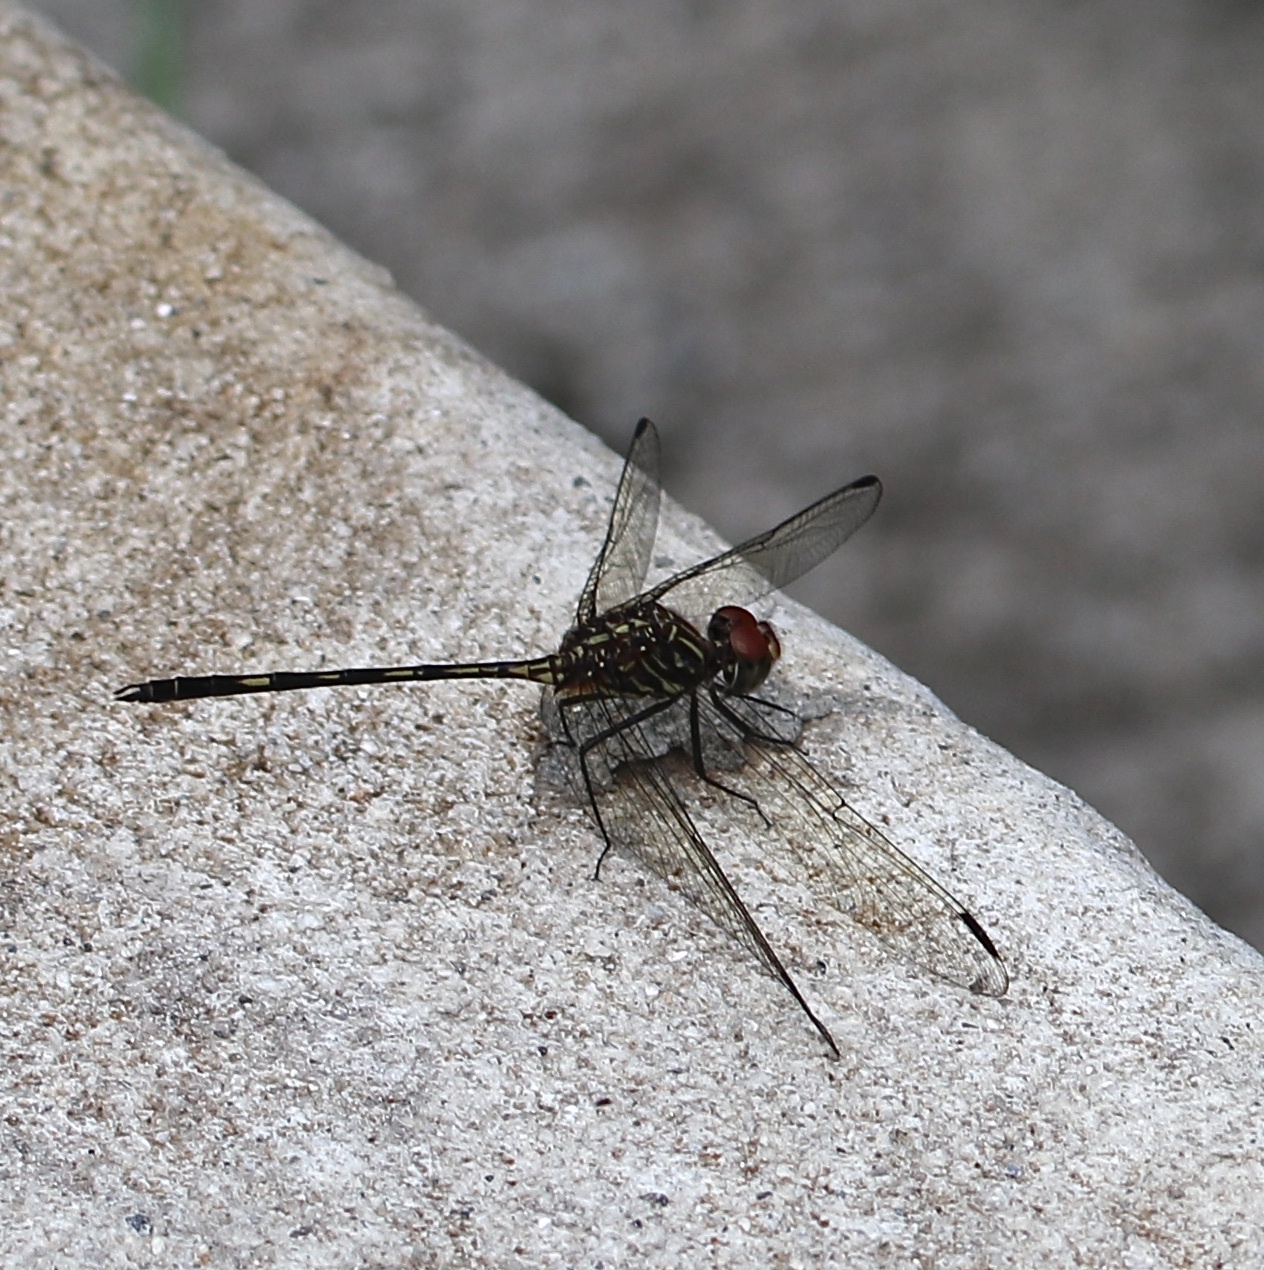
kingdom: Animalia
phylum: Arthropoda
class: Insecta
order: Odonata
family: Libellulidae
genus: Dythemis
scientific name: Dythemis sterilis
